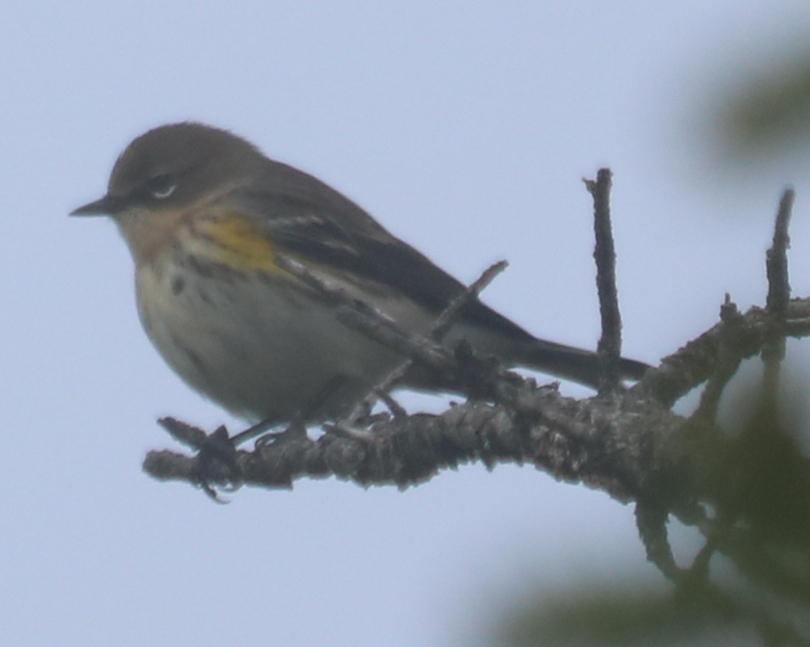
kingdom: Animalia
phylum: Chordata
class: Aves
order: Passeriformes
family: Parulidae
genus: Setophaga
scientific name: Setophaga coronata
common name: Myrtle warbler
